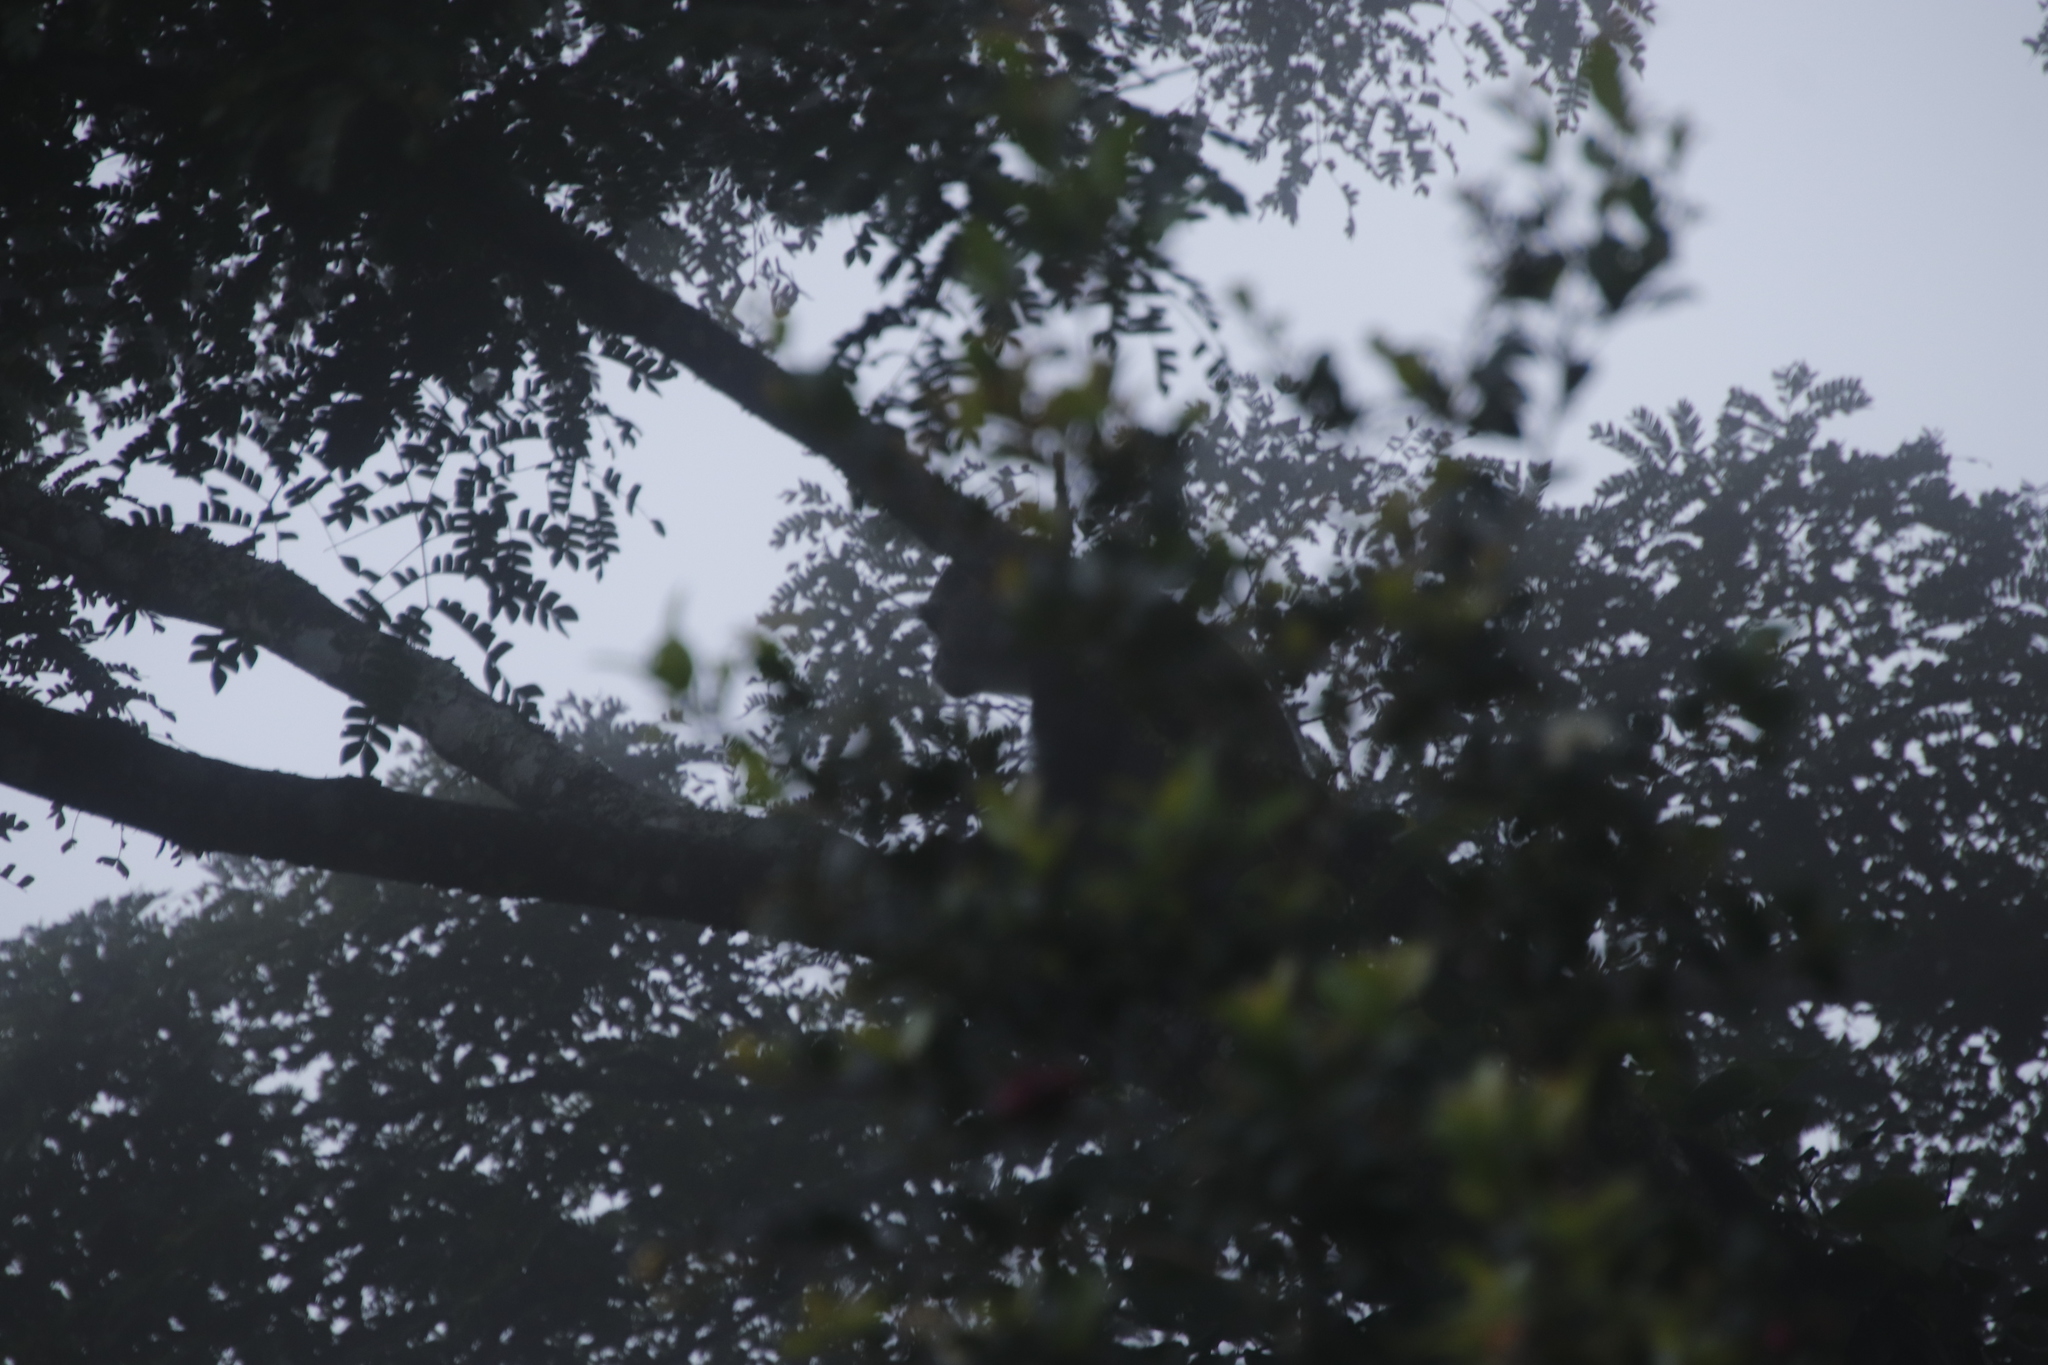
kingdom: Animalia
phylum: Chordata
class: Mammalia
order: Primates
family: Cercopithecidae
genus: Cercopithecus
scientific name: Cercopithecus mitis
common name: Blue monkey
